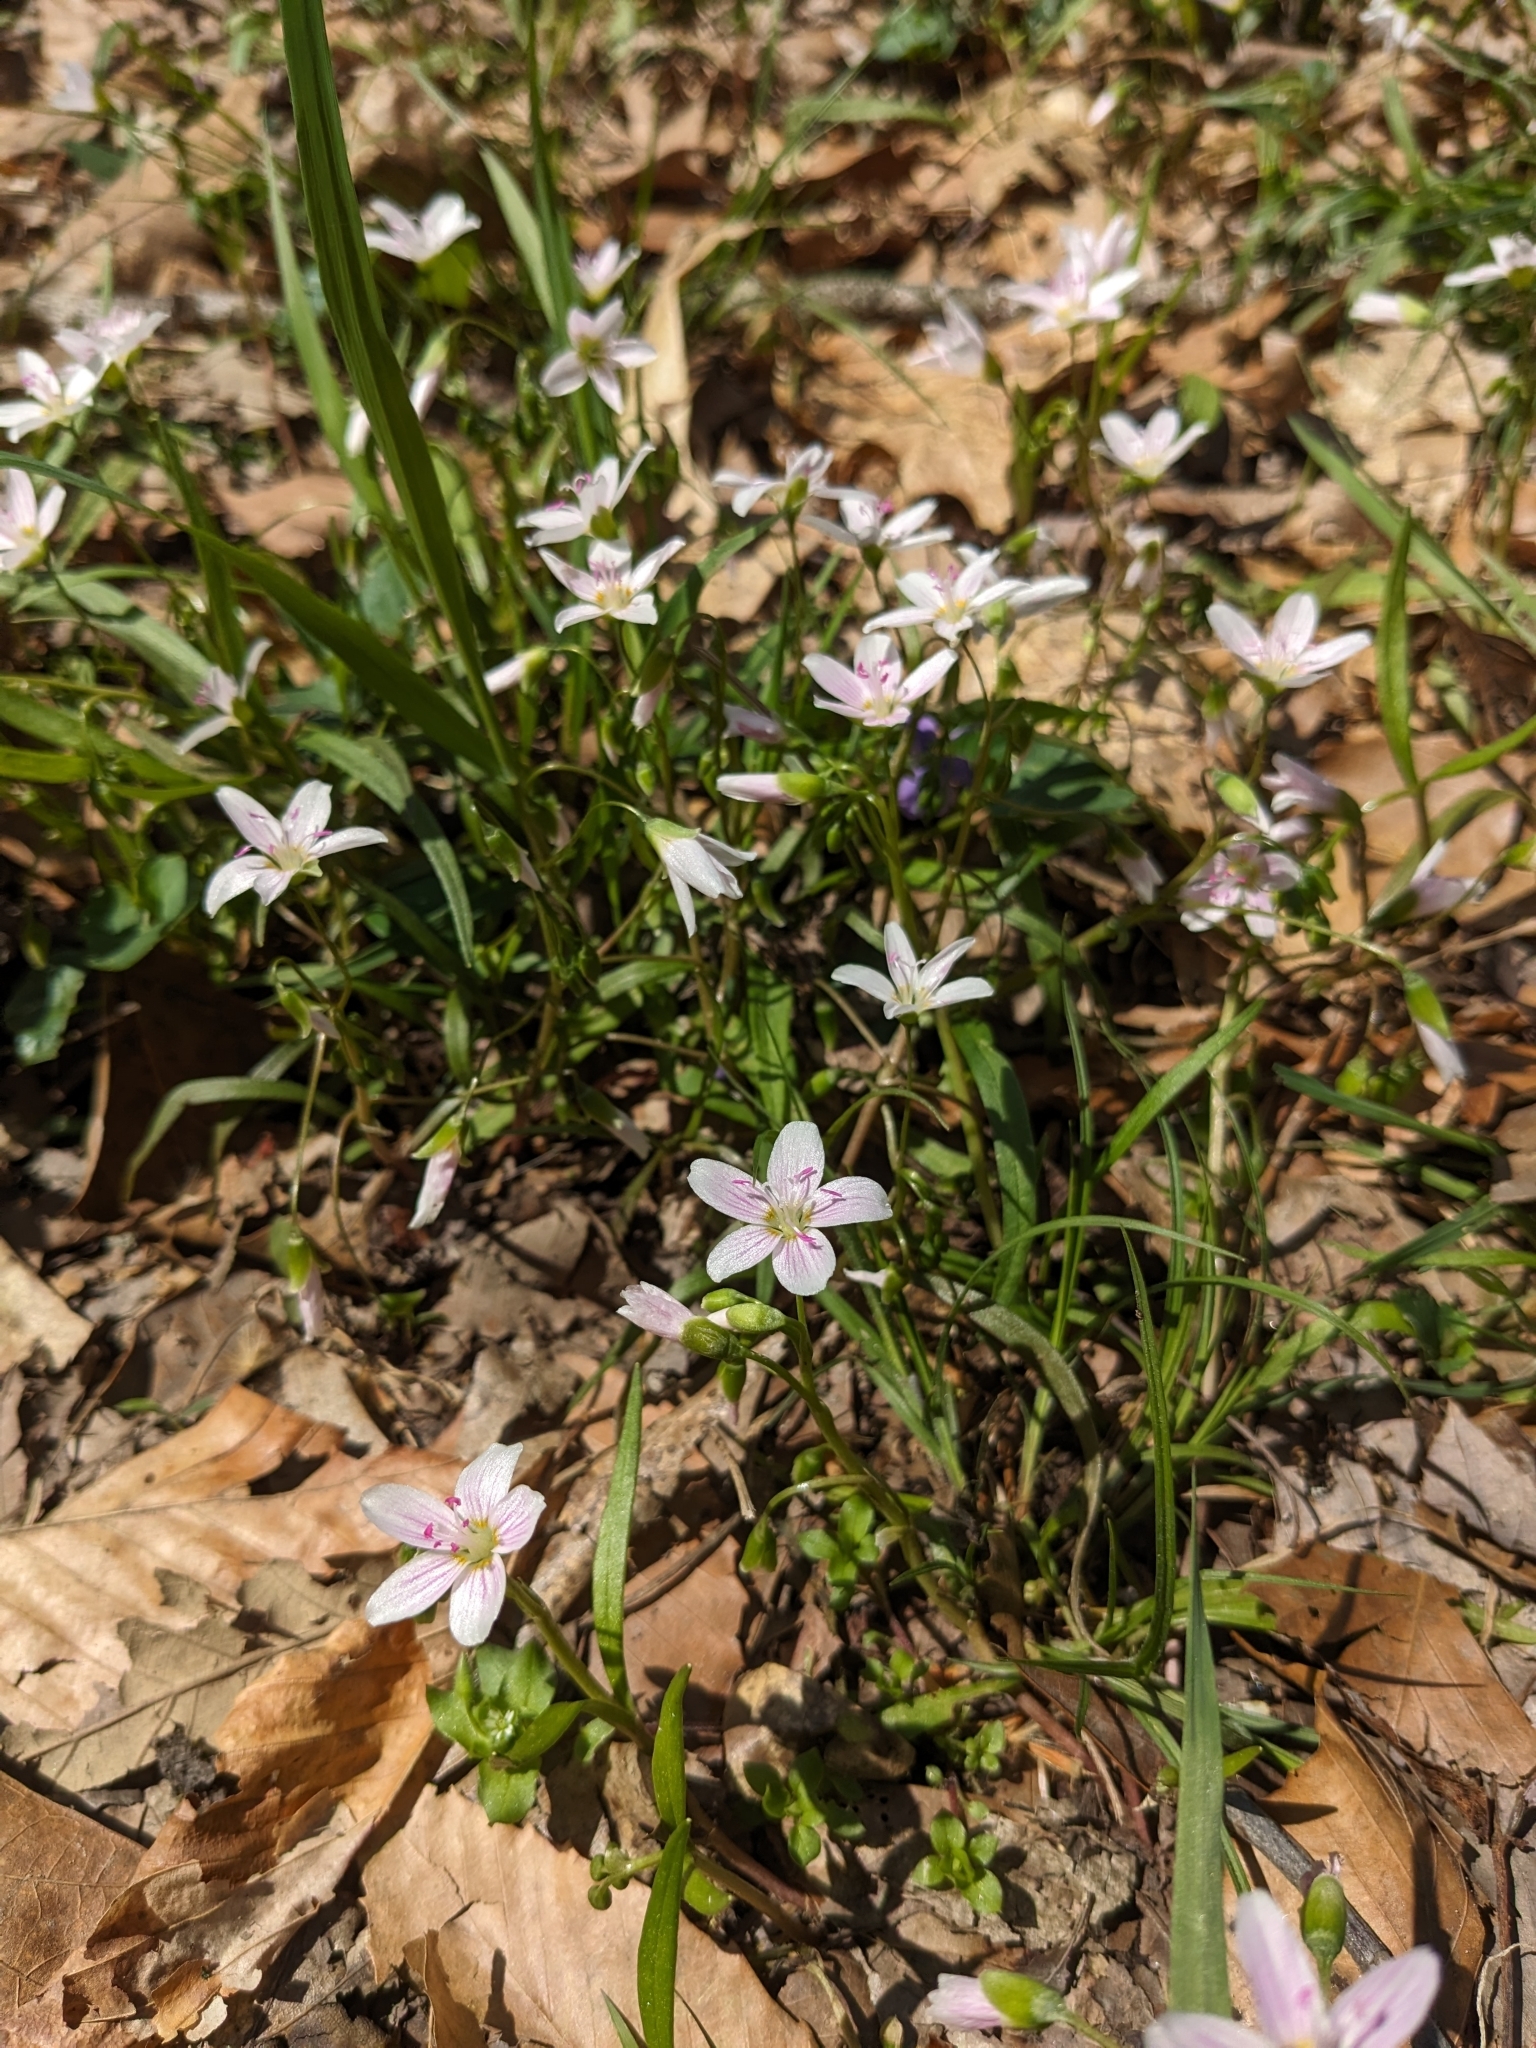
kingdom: Plantae
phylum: Tracheophyta
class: Magnoliopsida
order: Caryophyllales
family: Montiaceae
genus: Claytonia
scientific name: Claytonia virginica
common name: Virginia springbeauty
